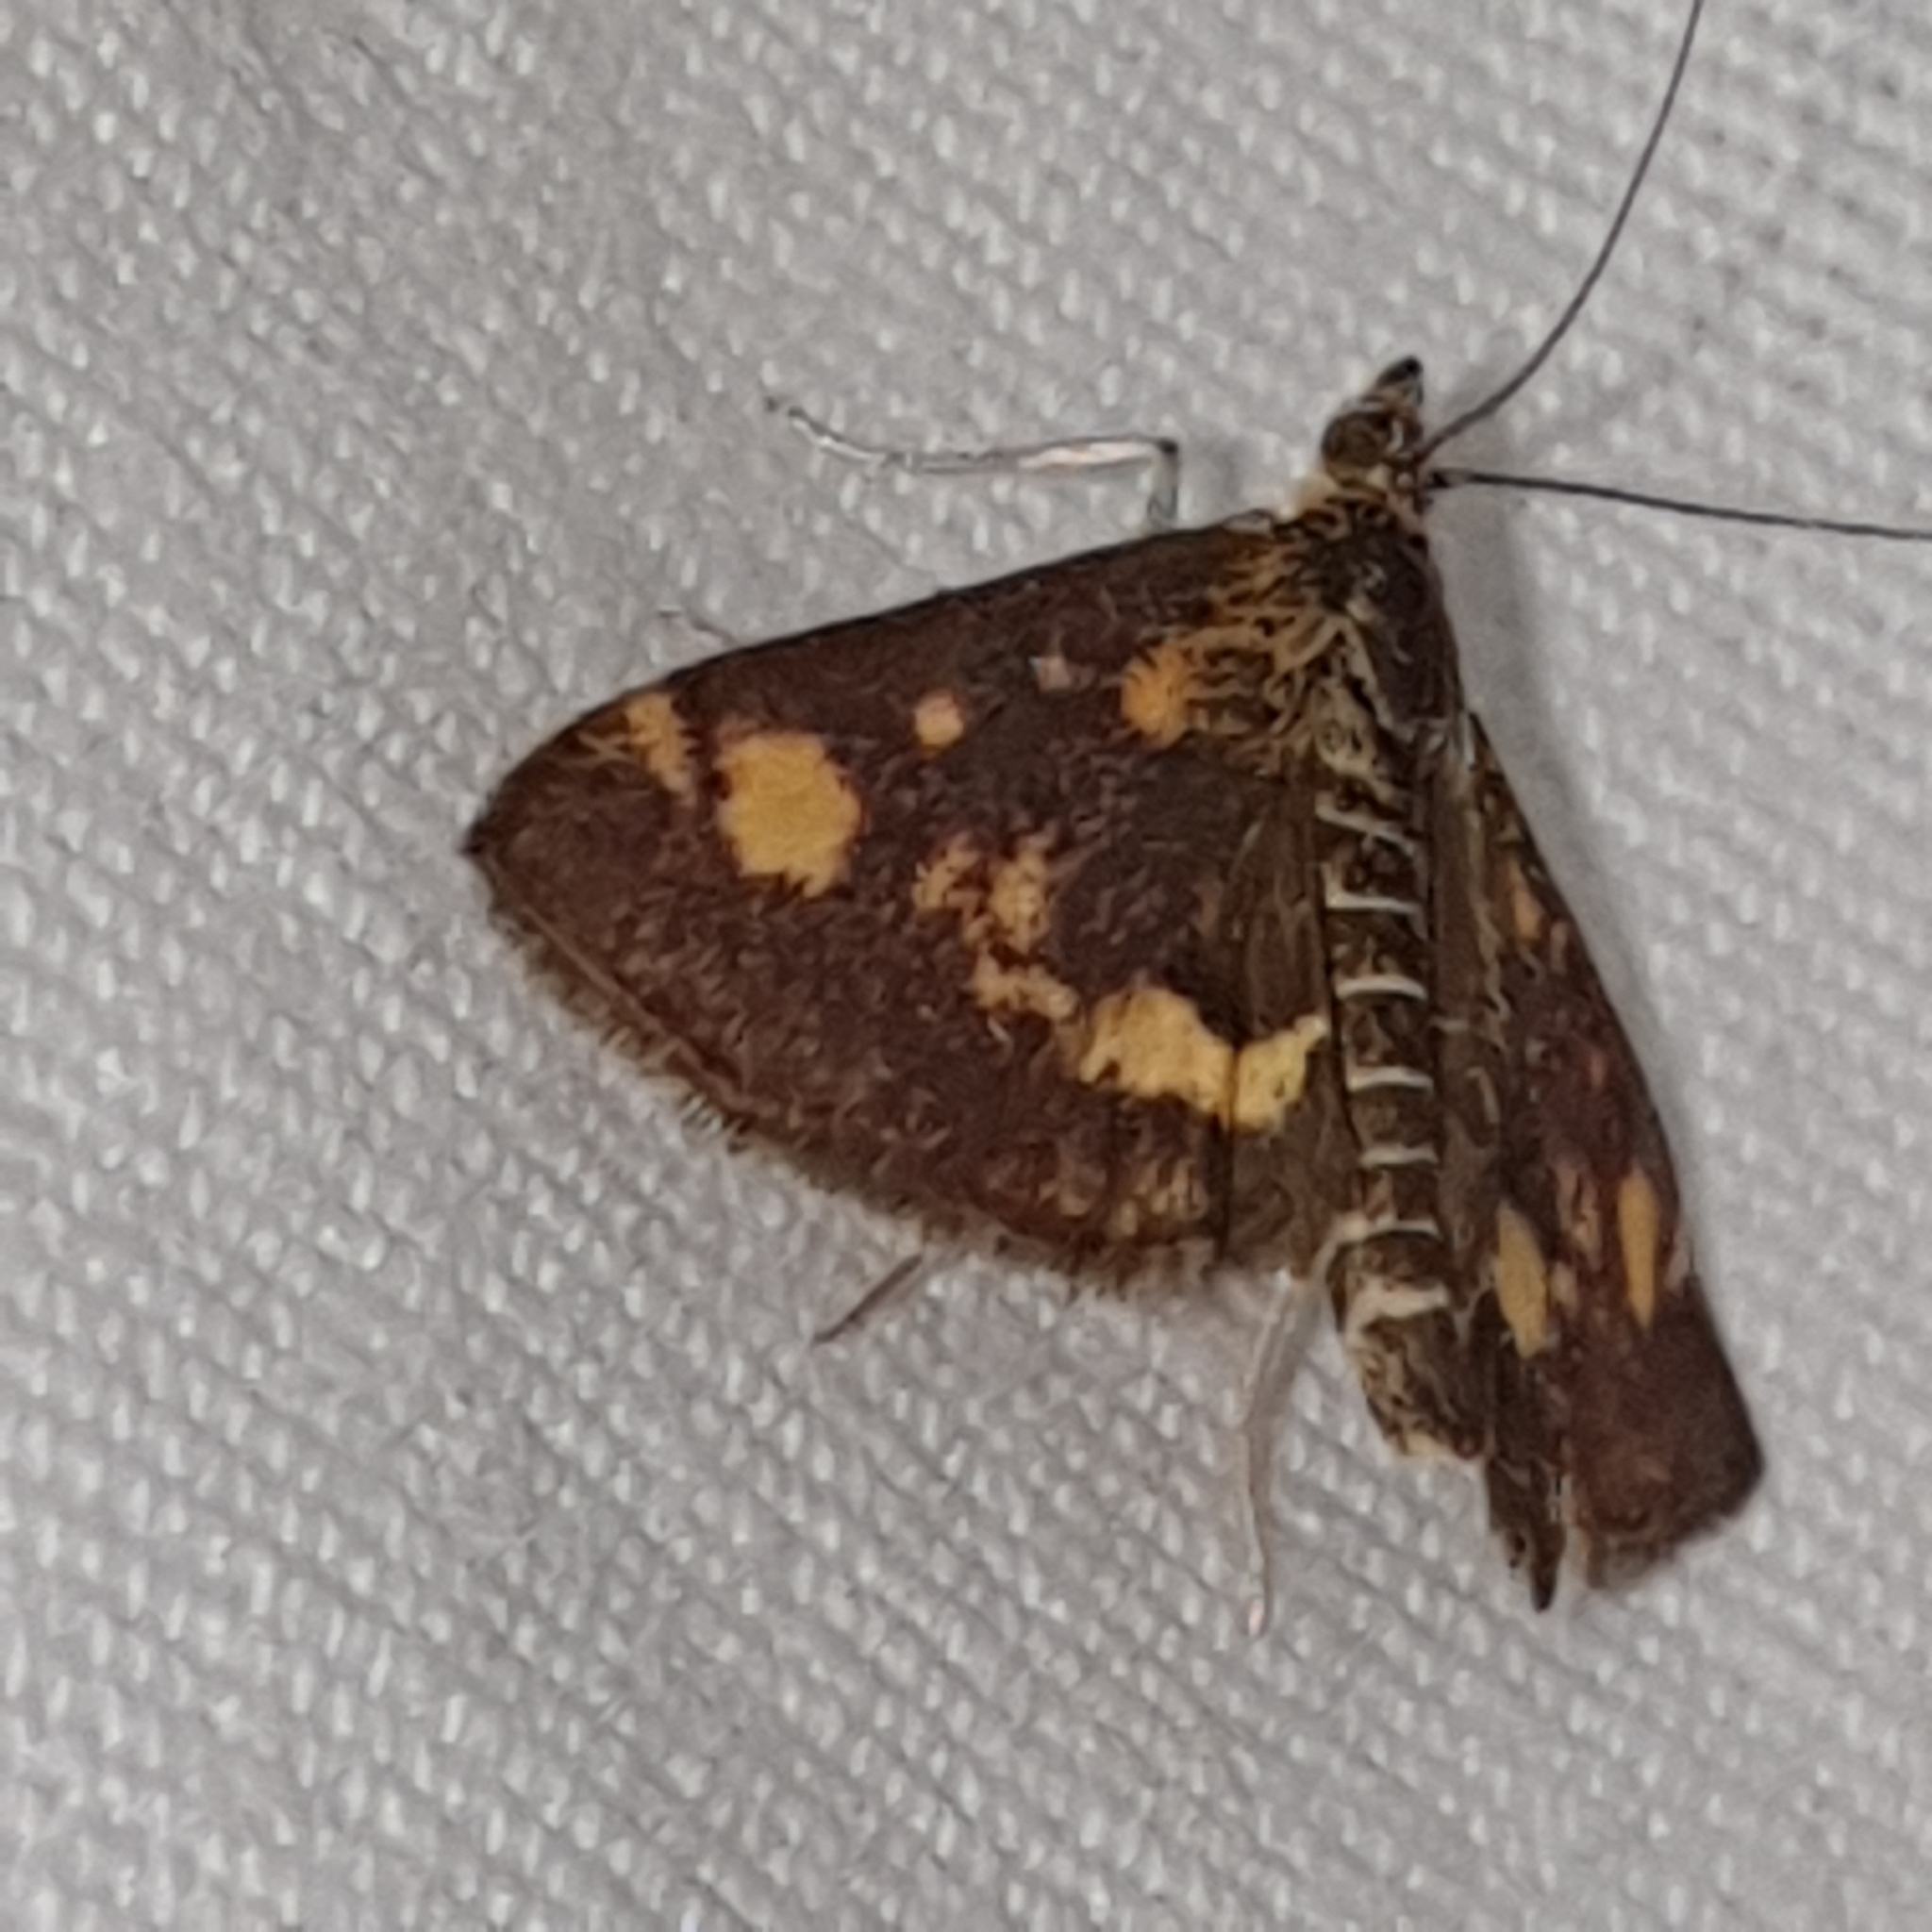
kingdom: Animalia
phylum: Arthropoda
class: Insecta
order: Lepidoptera
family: Crambidae
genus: Pyrausta
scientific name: Pyrausta aurata
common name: Small purple & gold
